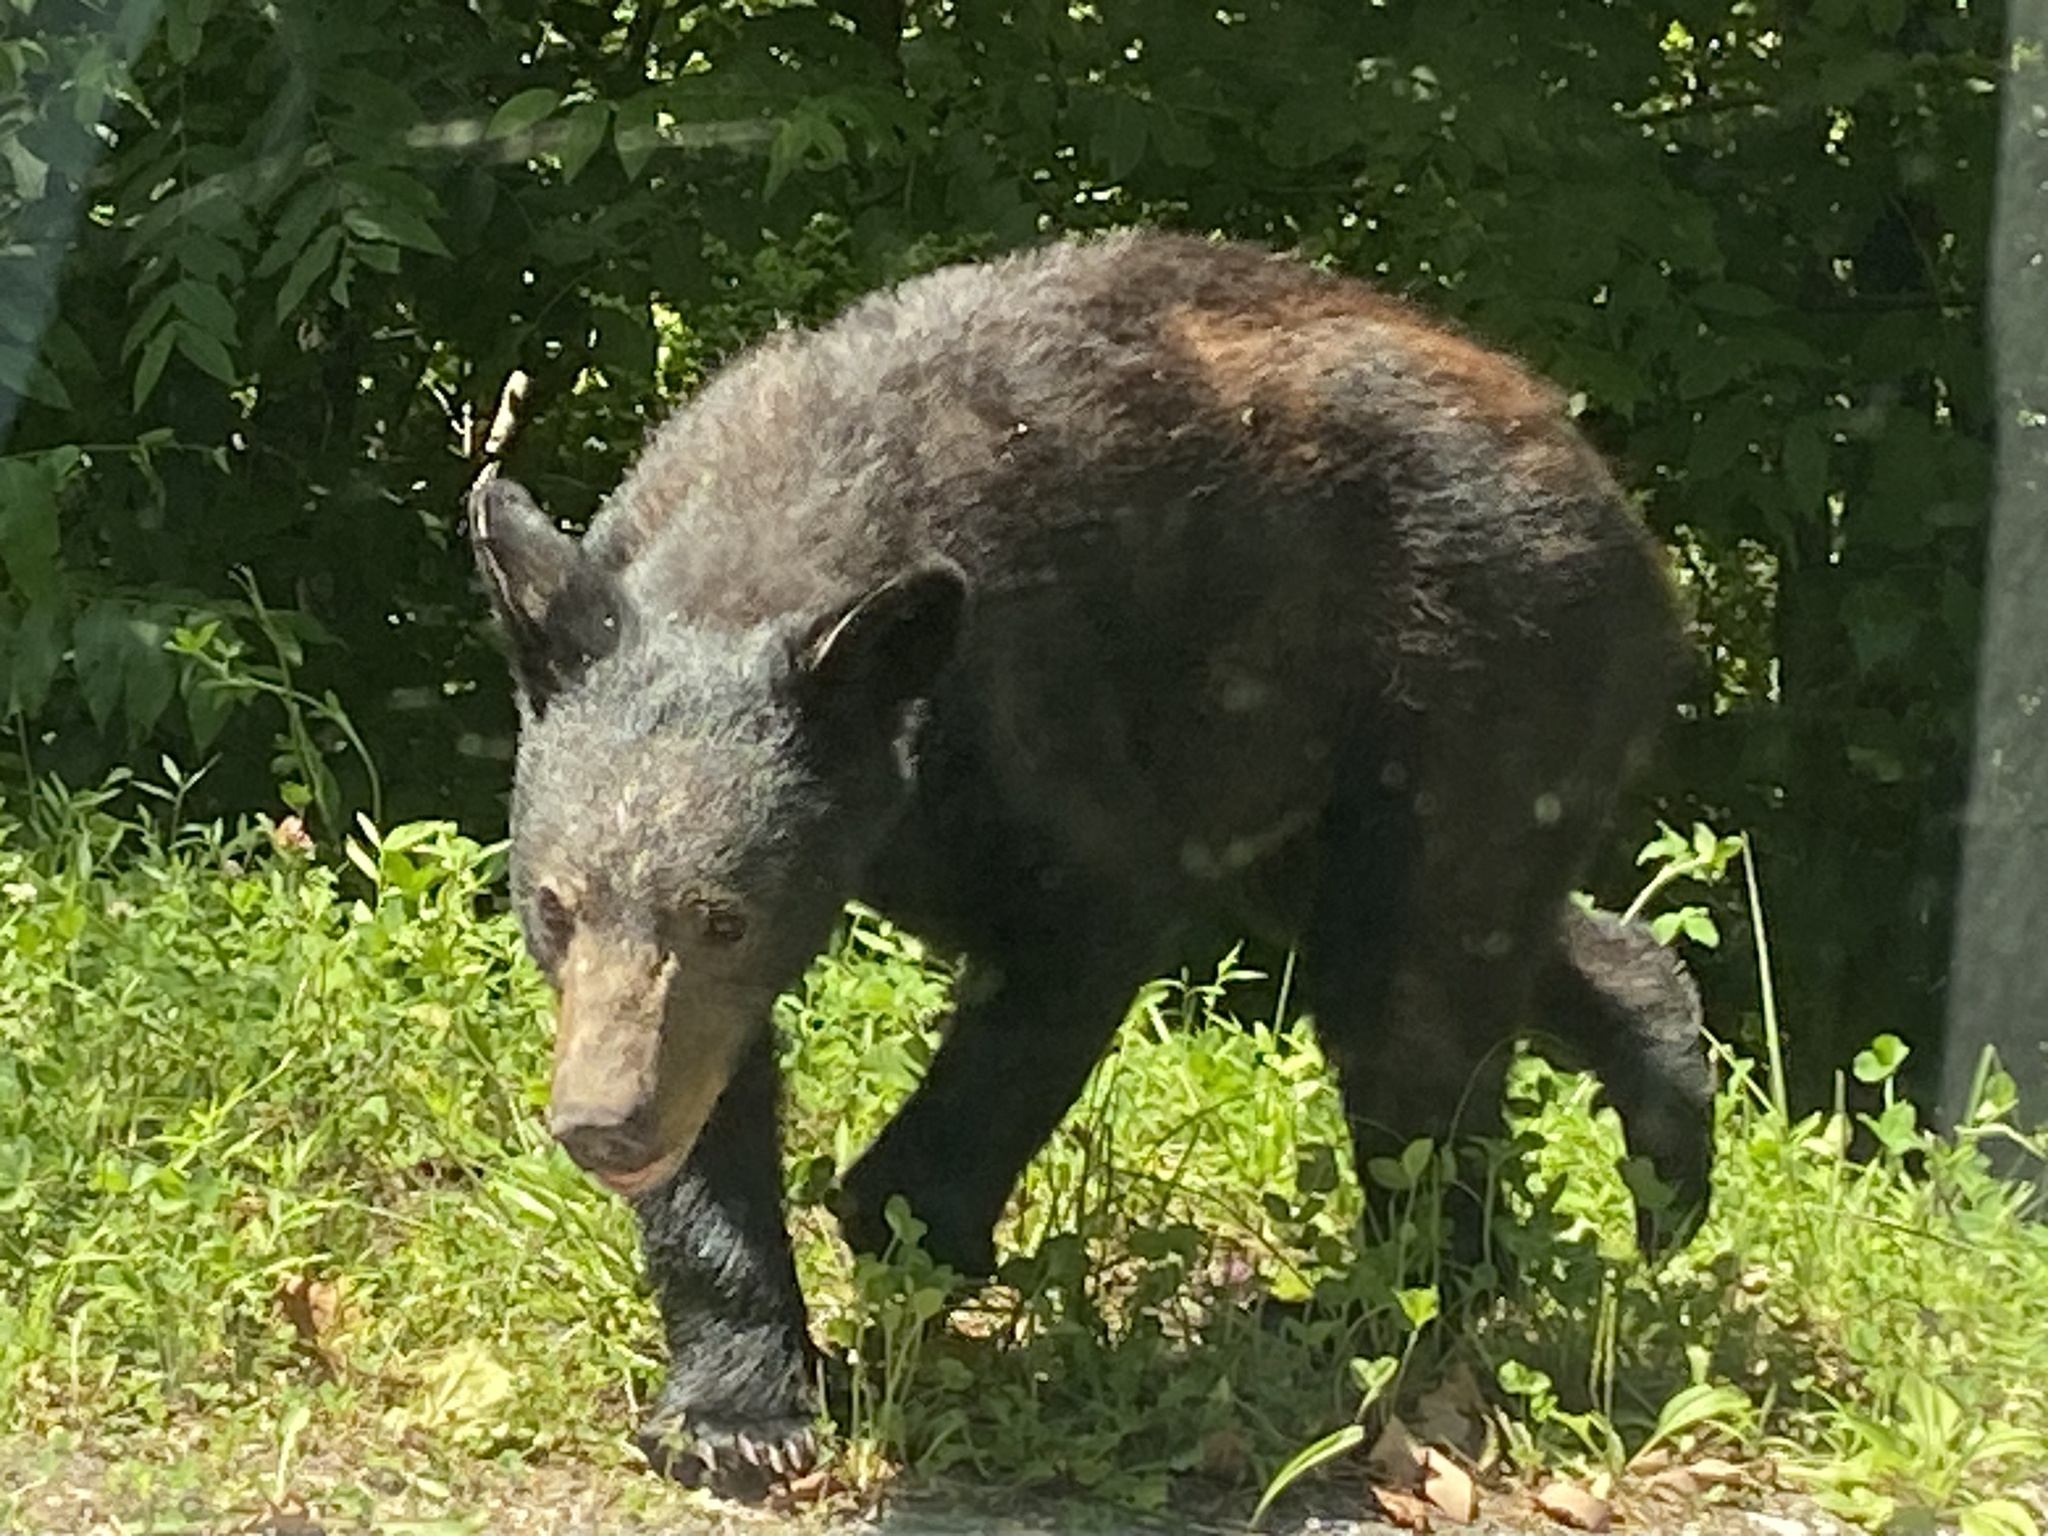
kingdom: Animalia
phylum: Chordata
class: Mammalia
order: Carnivora
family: Ursidae
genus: Ursus
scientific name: Ursus americanus
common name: American black bear
